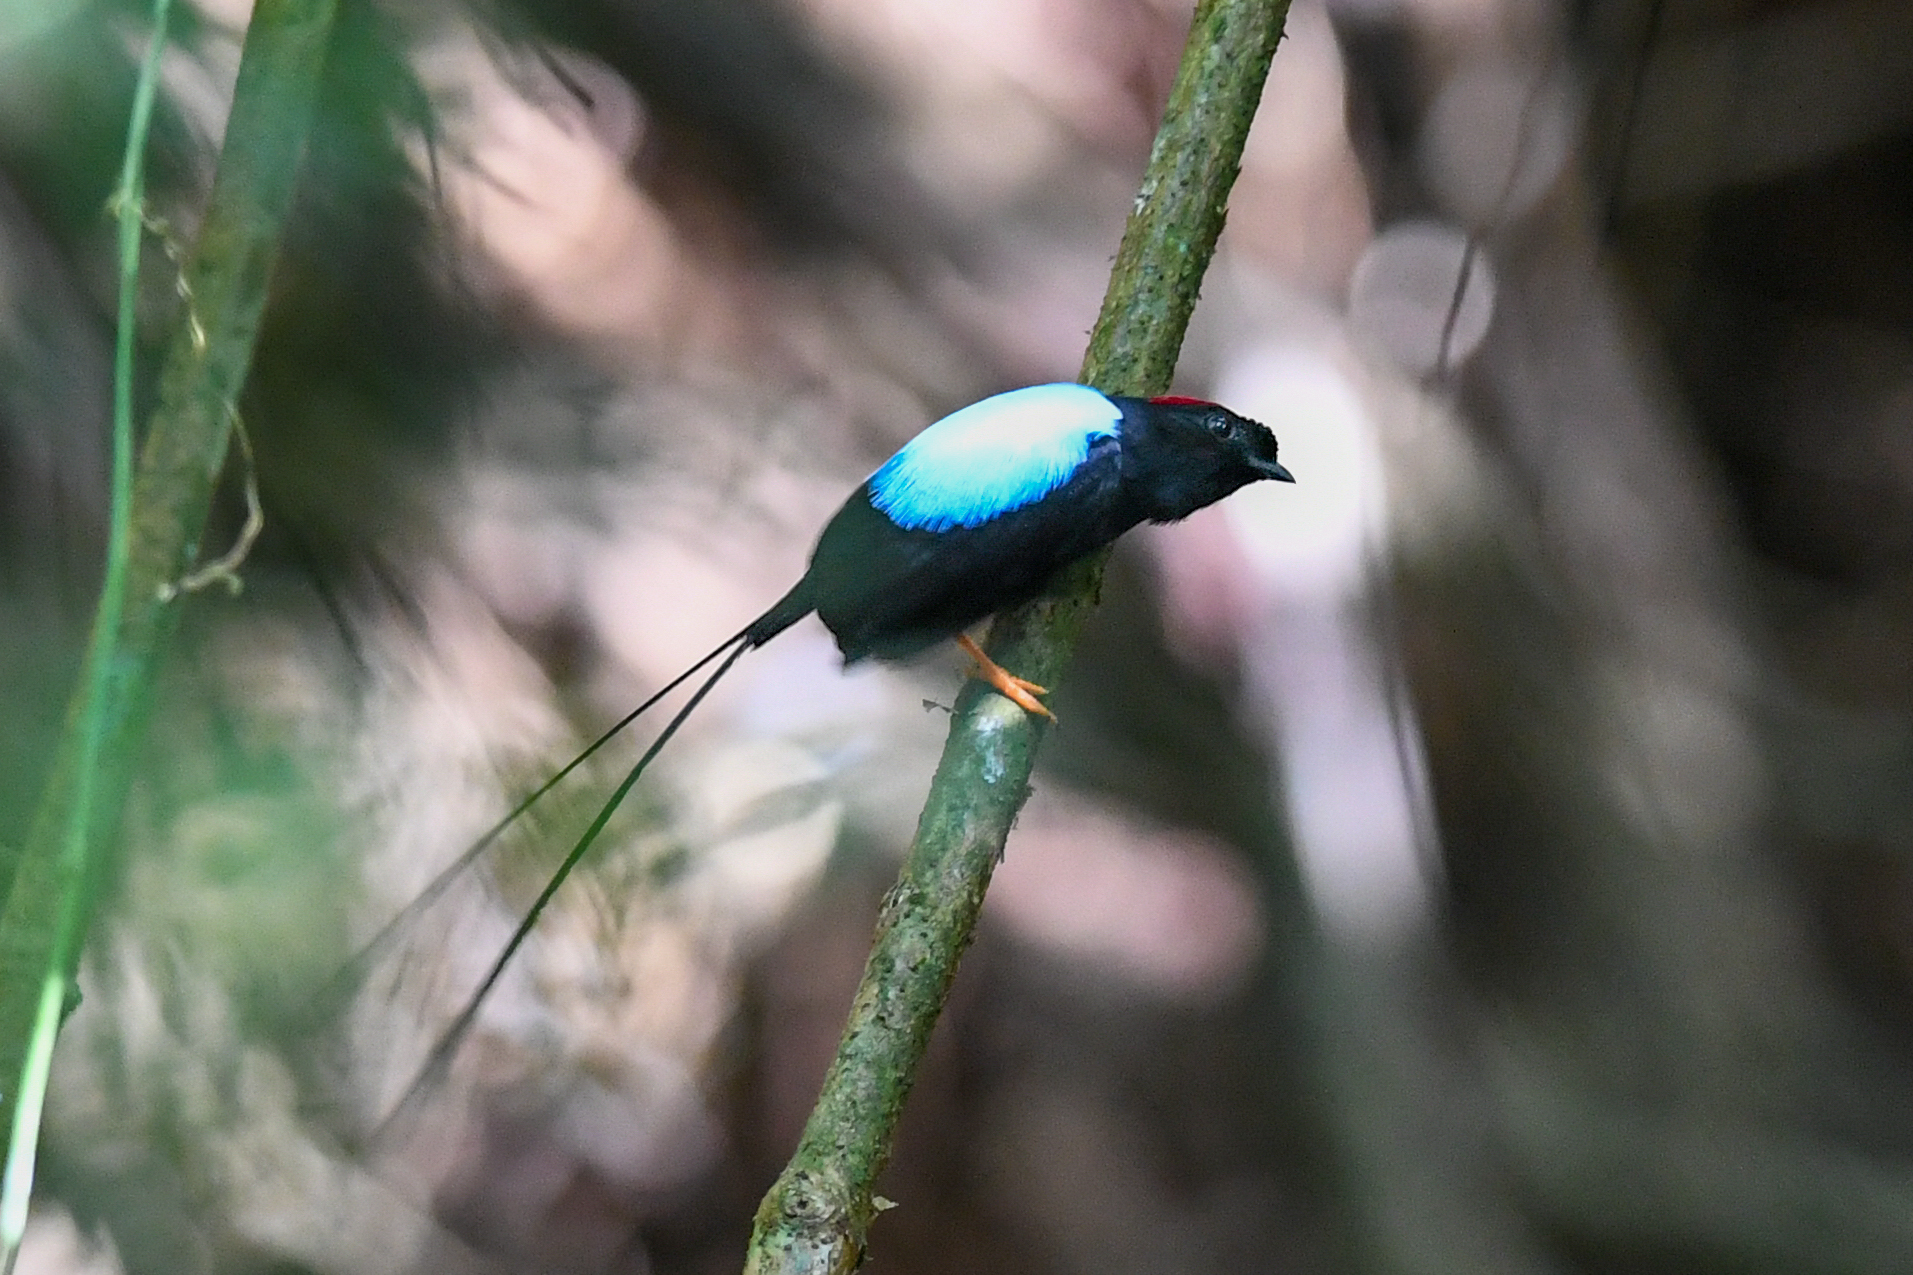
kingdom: Animalia
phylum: Chordata
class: Aves
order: Passeriformes
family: Pipridae
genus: Chiroxiphia
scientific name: Chiroxiphia linearis
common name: Long-tailed manakin
